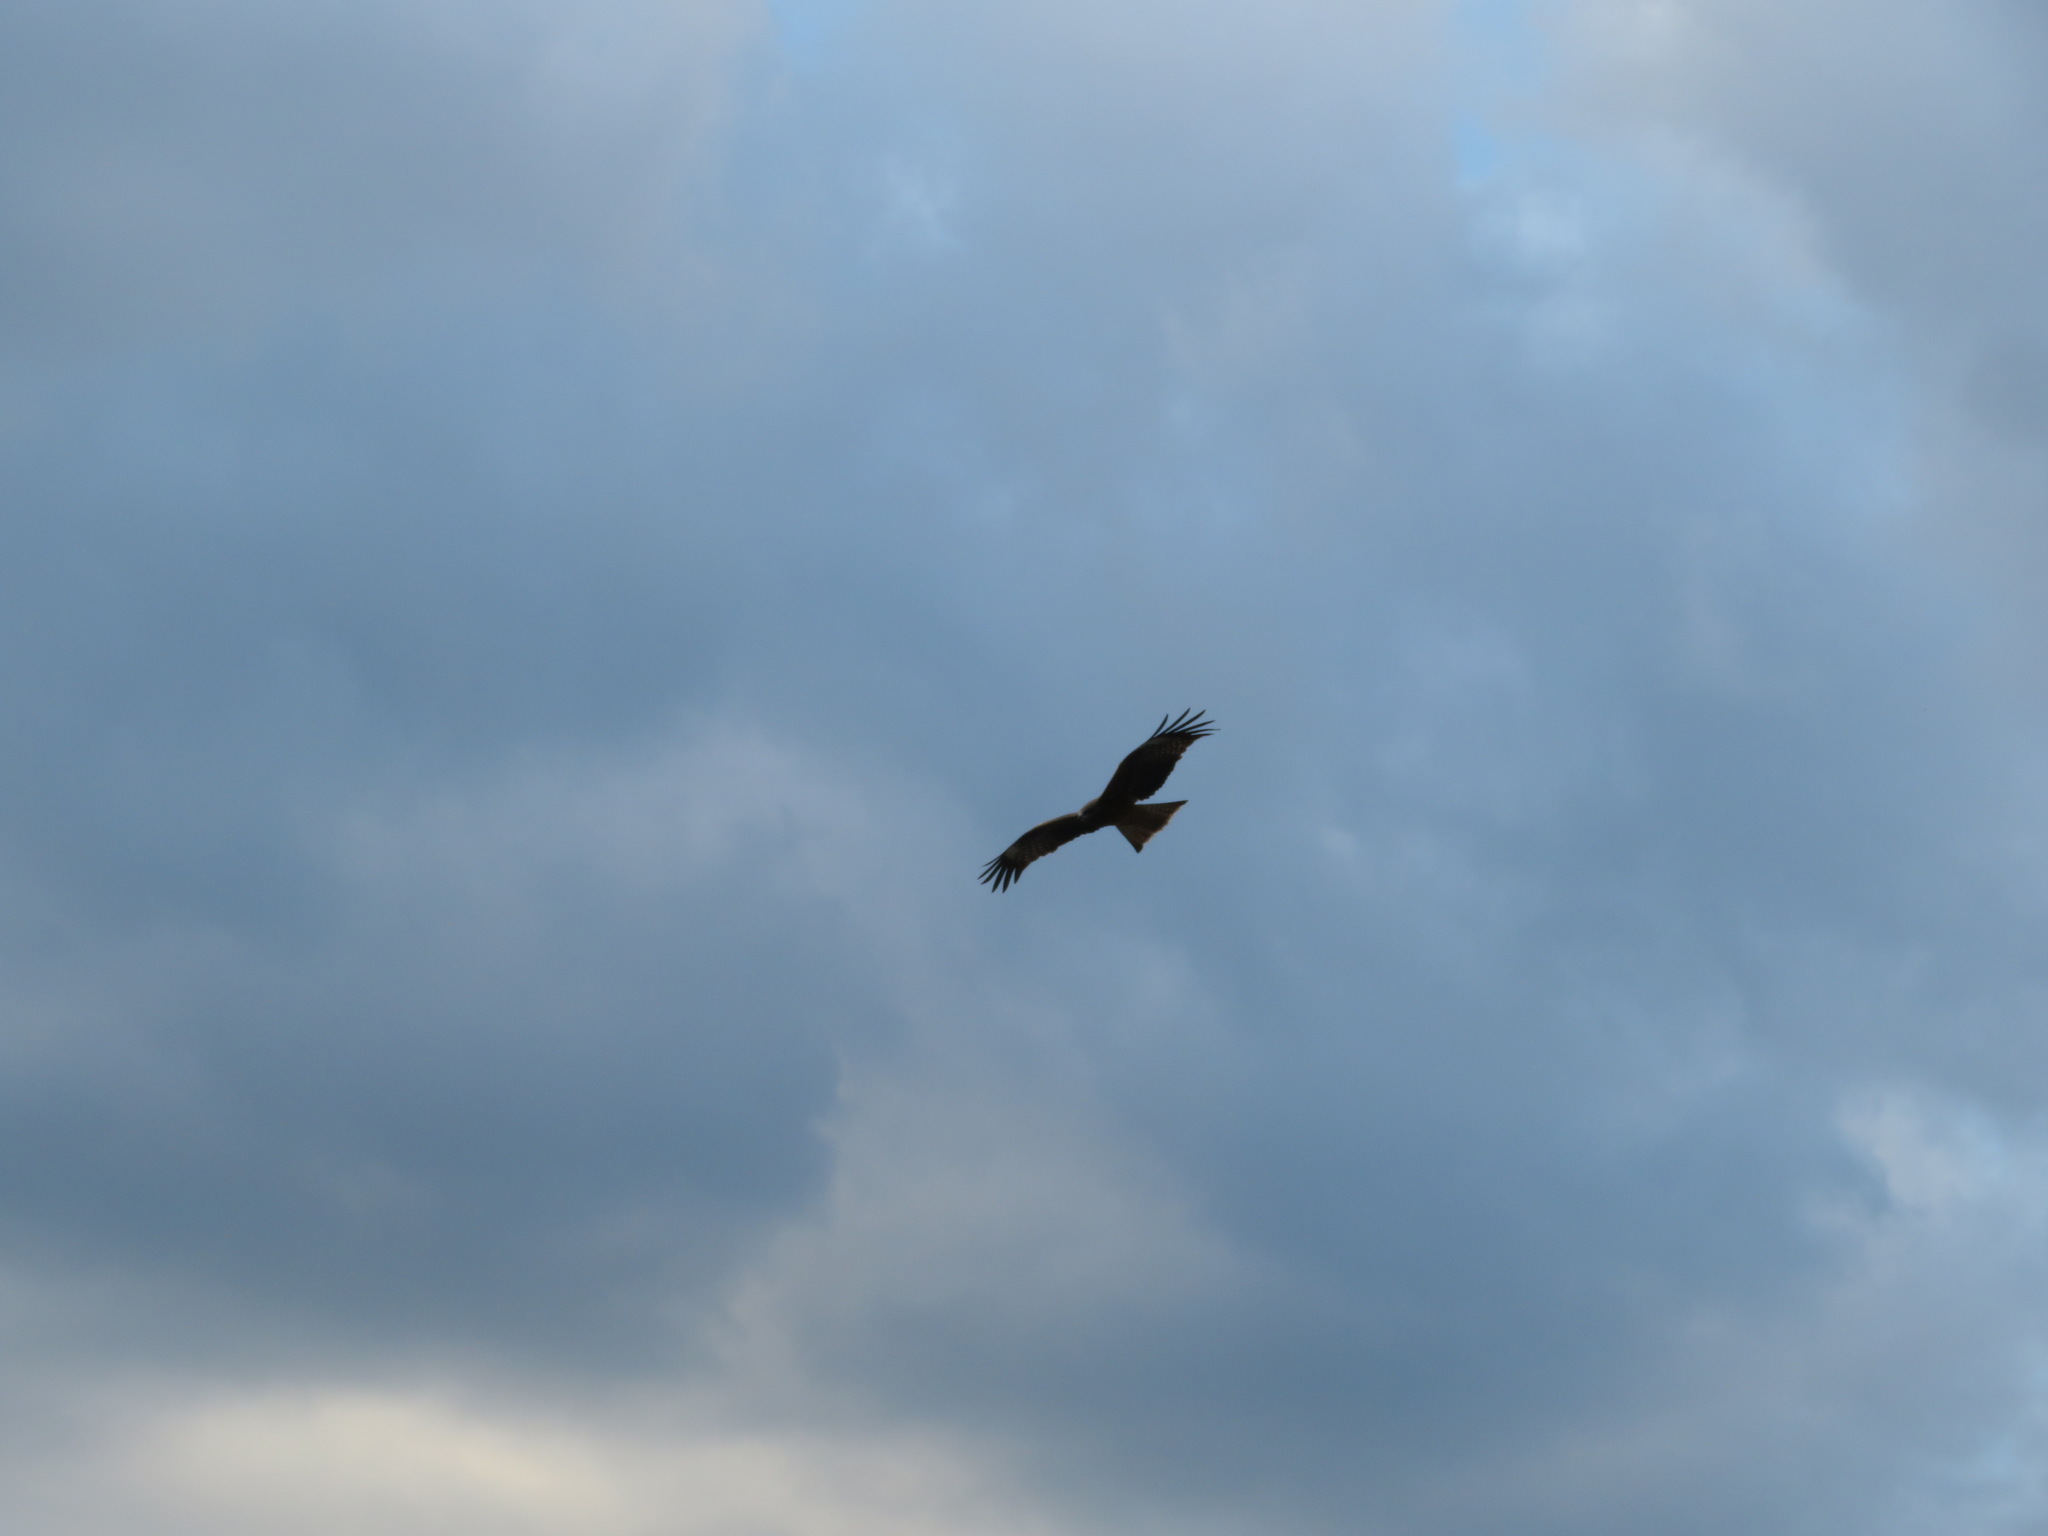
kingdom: Animalia
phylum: Chordata
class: Aves
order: Accipitriformes
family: Accipitridae
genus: Milvus
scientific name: Milvus migrans
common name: Black kite
